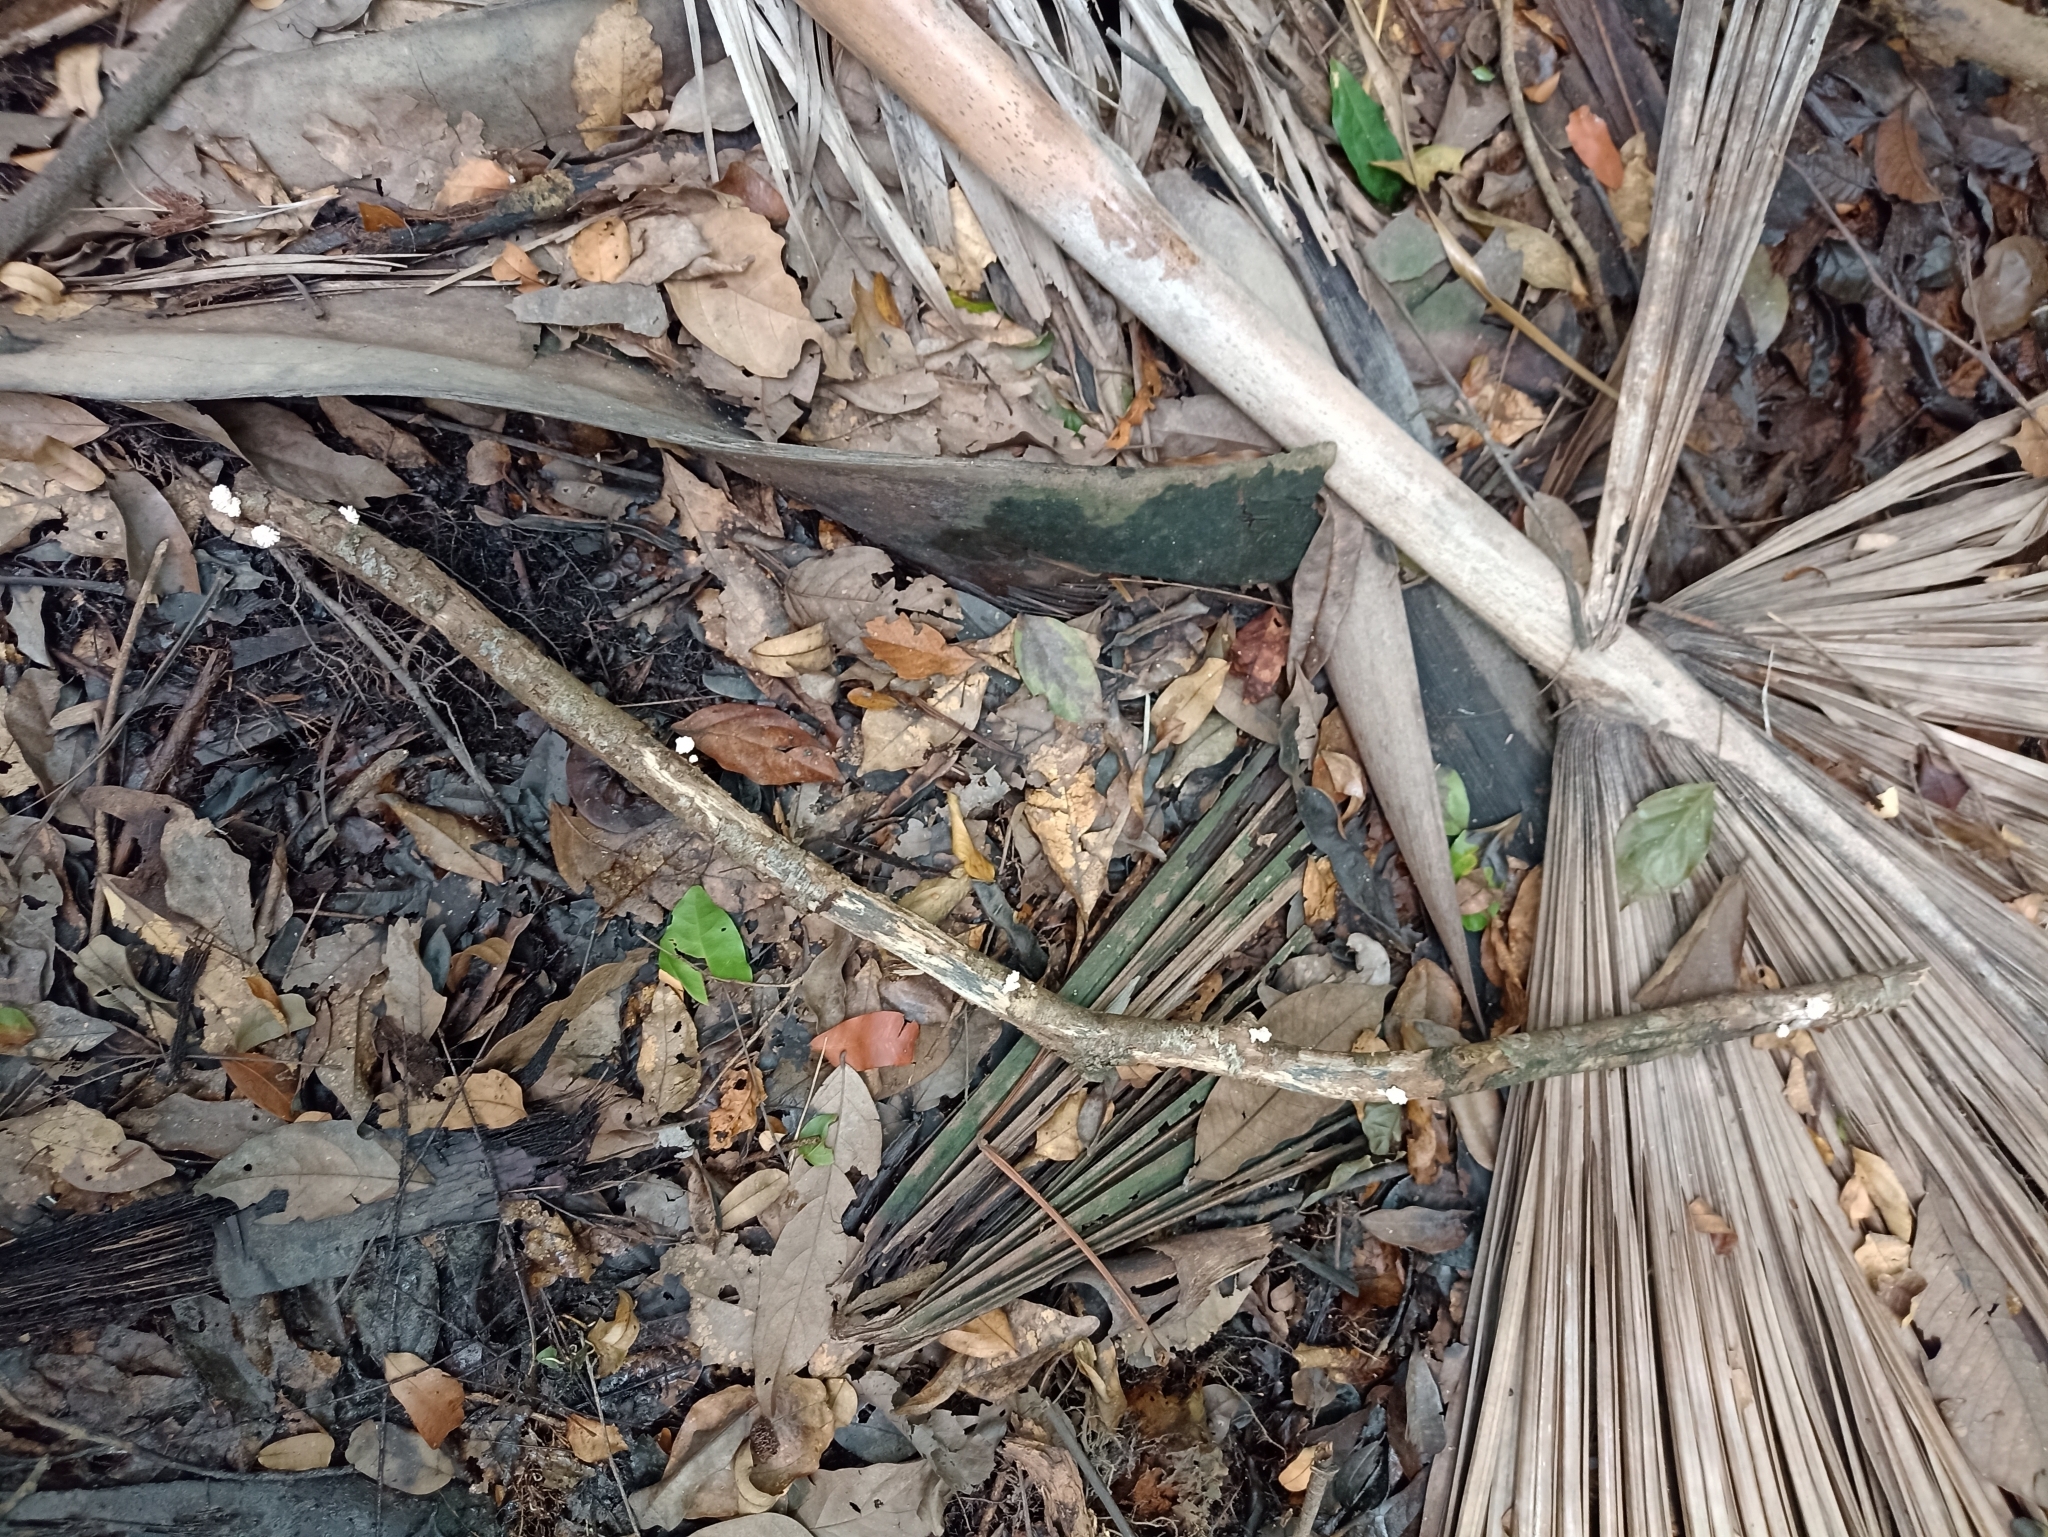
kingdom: Fungi
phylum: Ascomycota
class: Sordariomycetes
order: Xylariales
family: Xylariaceae
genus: Xylaria
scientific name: Xylaria cubensis
